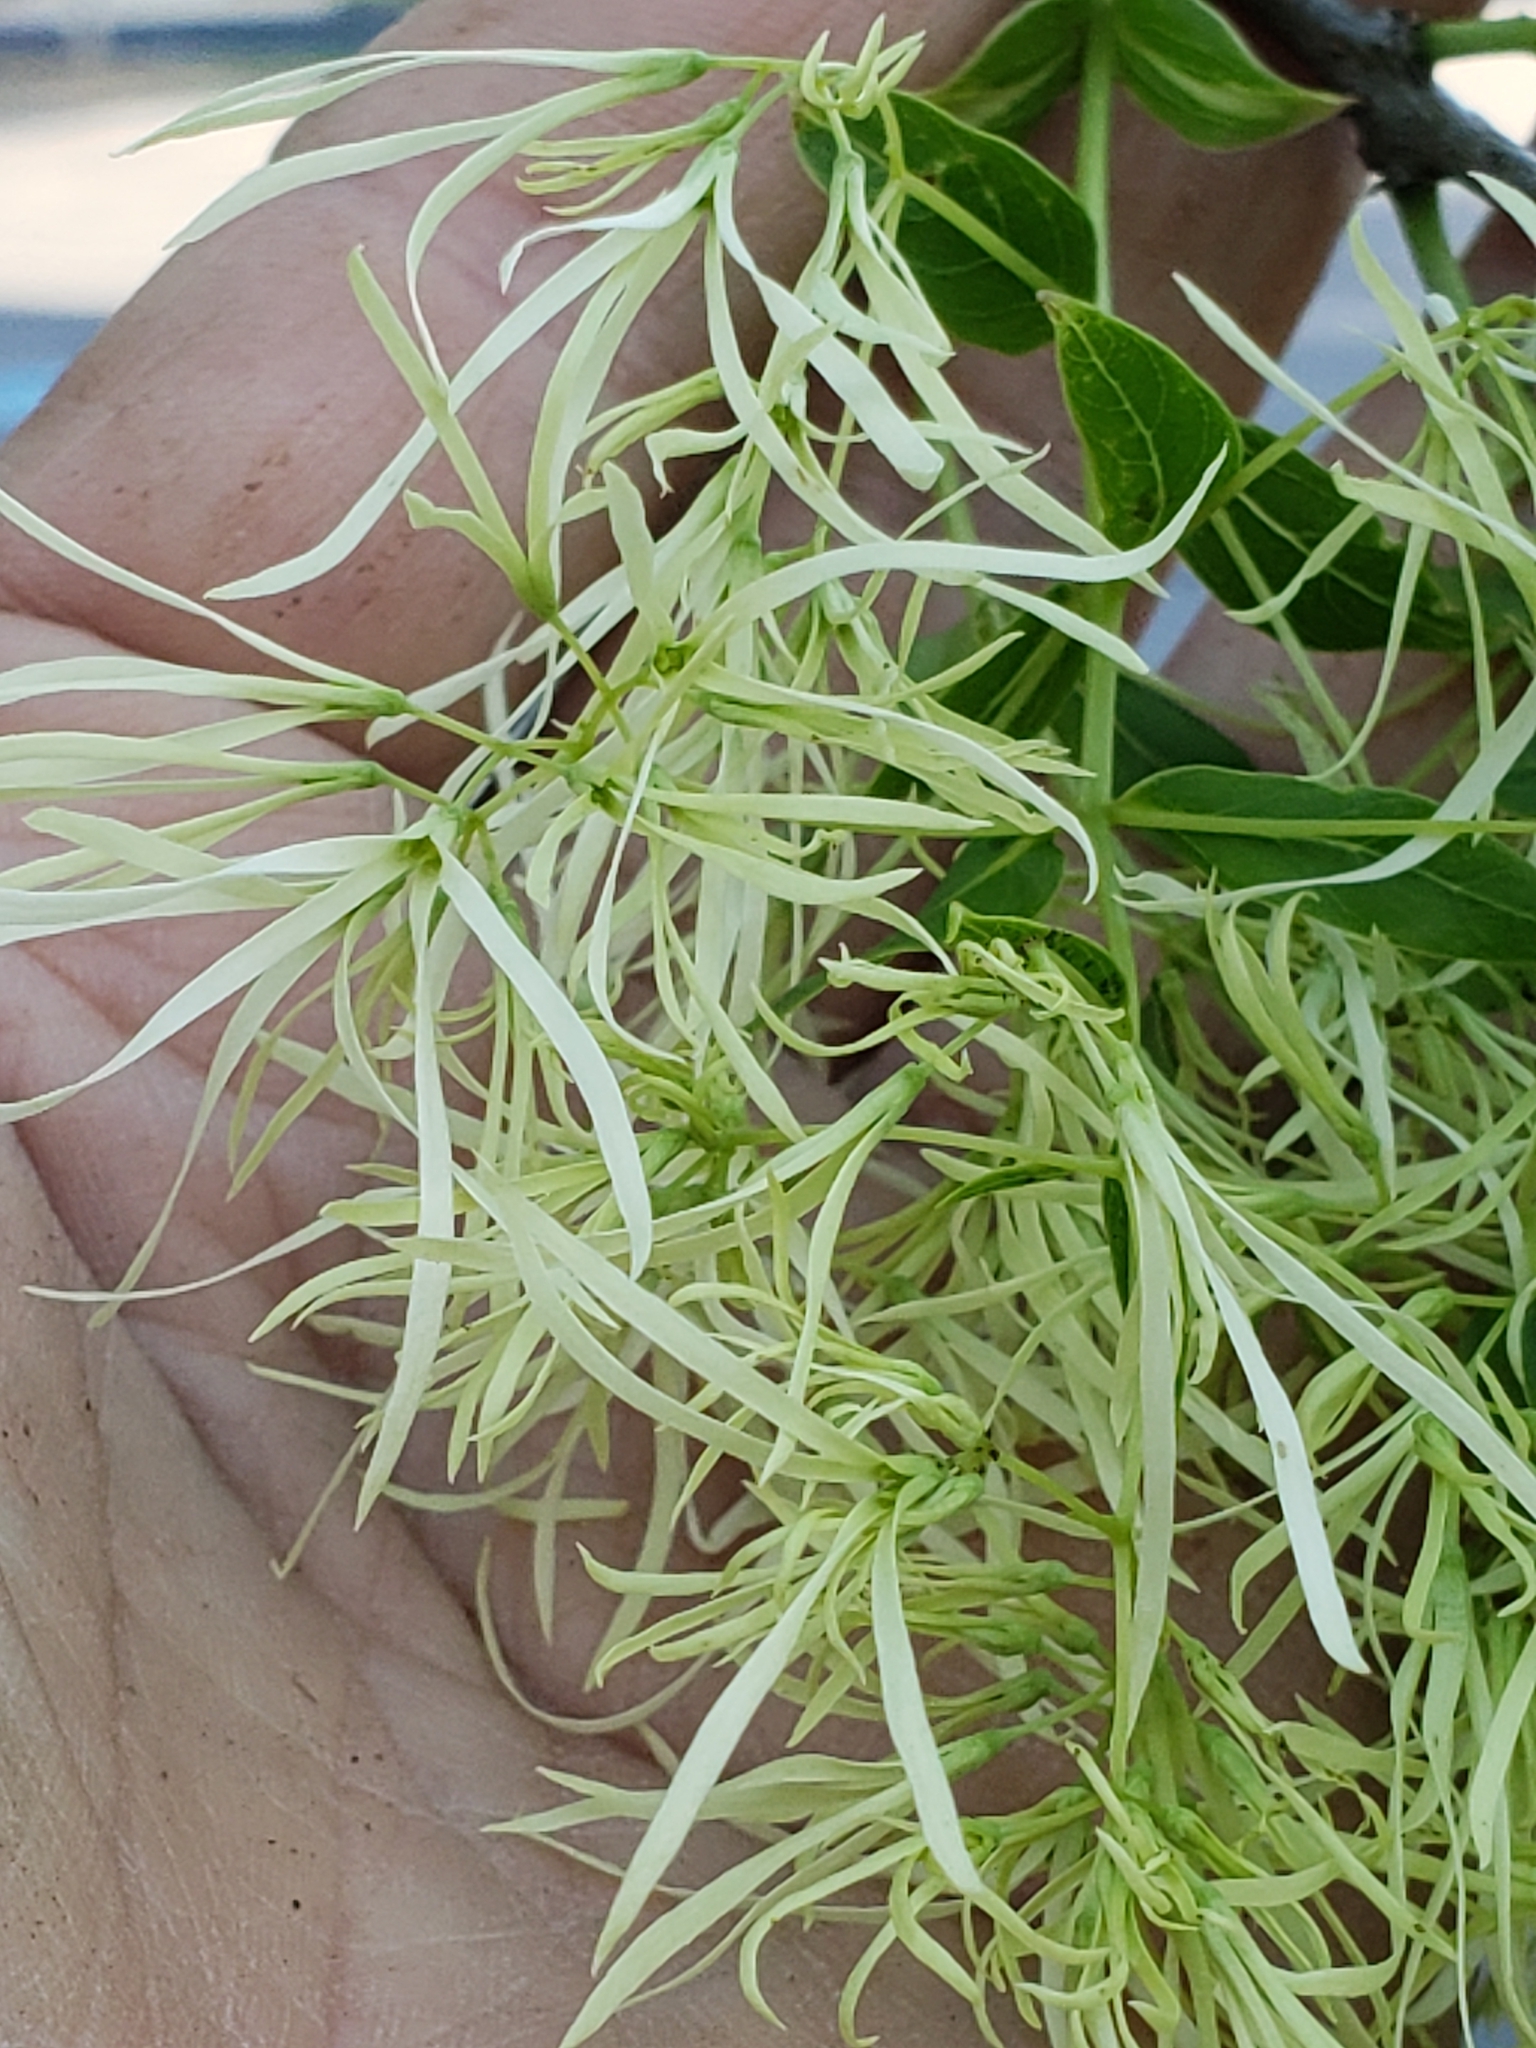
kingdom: Plantae
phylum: Tracheophyta
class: Magnoliopsida
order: Lamiales
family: Oleaceae
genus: Chionanthus
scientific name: Chionanthus virginicus
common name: American fringetree
